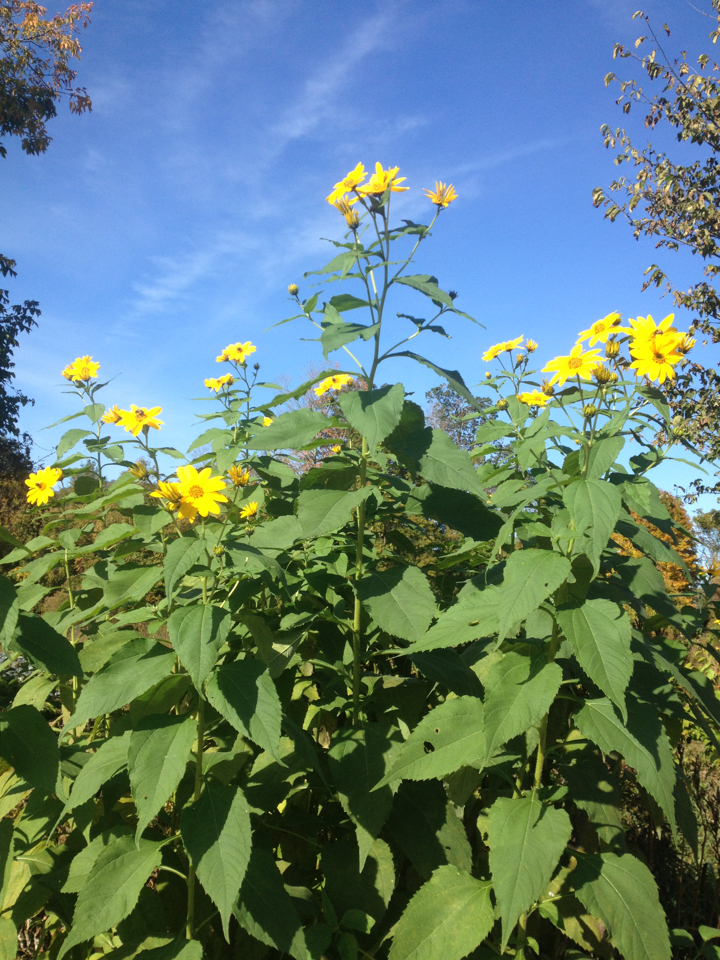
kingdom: Plantae
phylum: Tracheophyta
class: Magnoliopsida
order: Asterales
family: Asteraceae
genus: Helianthus
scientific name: Helianthus tuberosus
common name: Jerusalem artichoke
